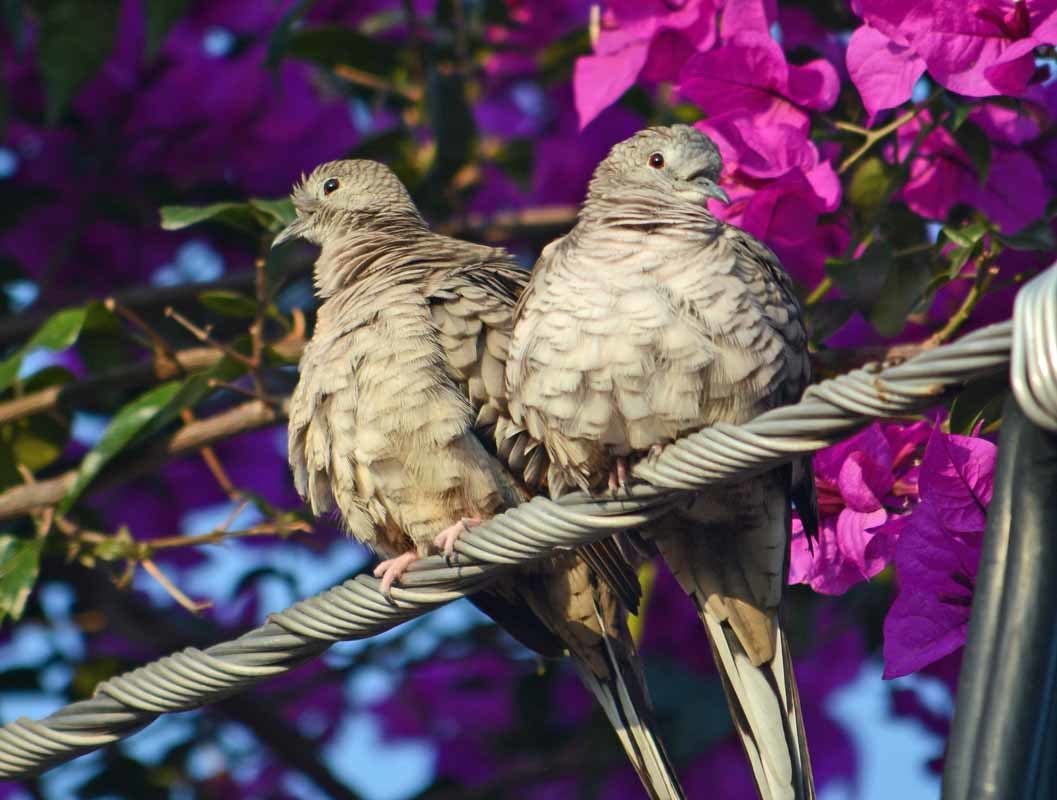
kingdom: Animalia
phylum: Chordata
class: Aves
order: Columbiformes
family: Columbidae
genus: Columbina
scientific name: Columbina inca
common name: Inca dove
